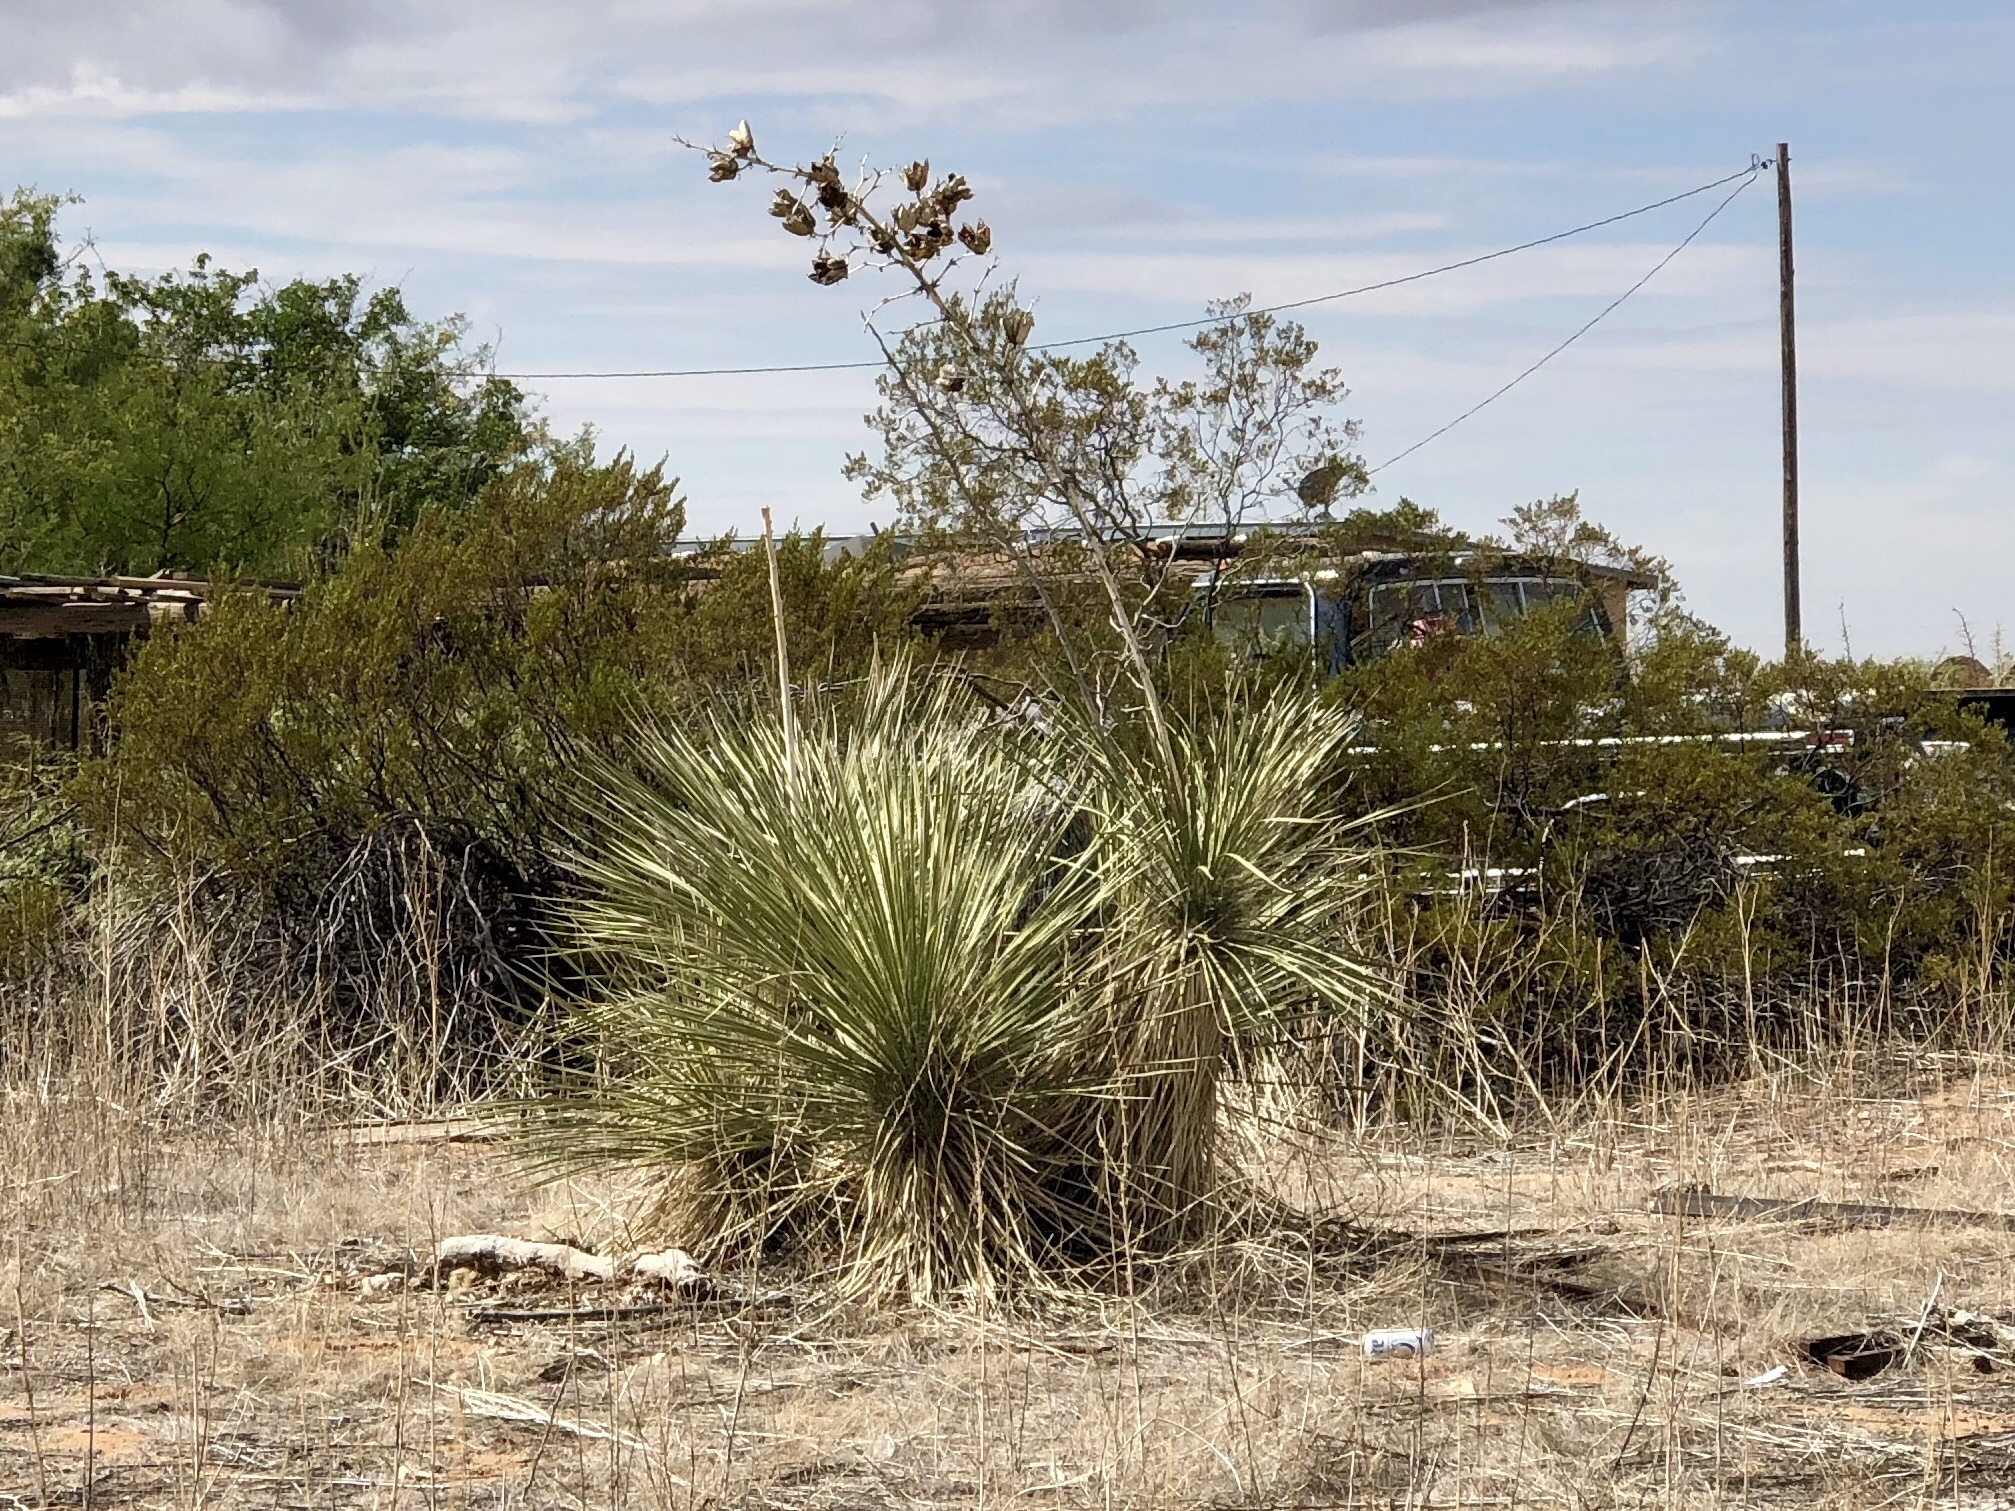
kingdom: Plantae
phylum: Tracheophyta
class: Liliopsida
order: Asparagales
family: Asparagaceae
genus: Yucca
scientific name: Yucca elata
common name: Palmella
